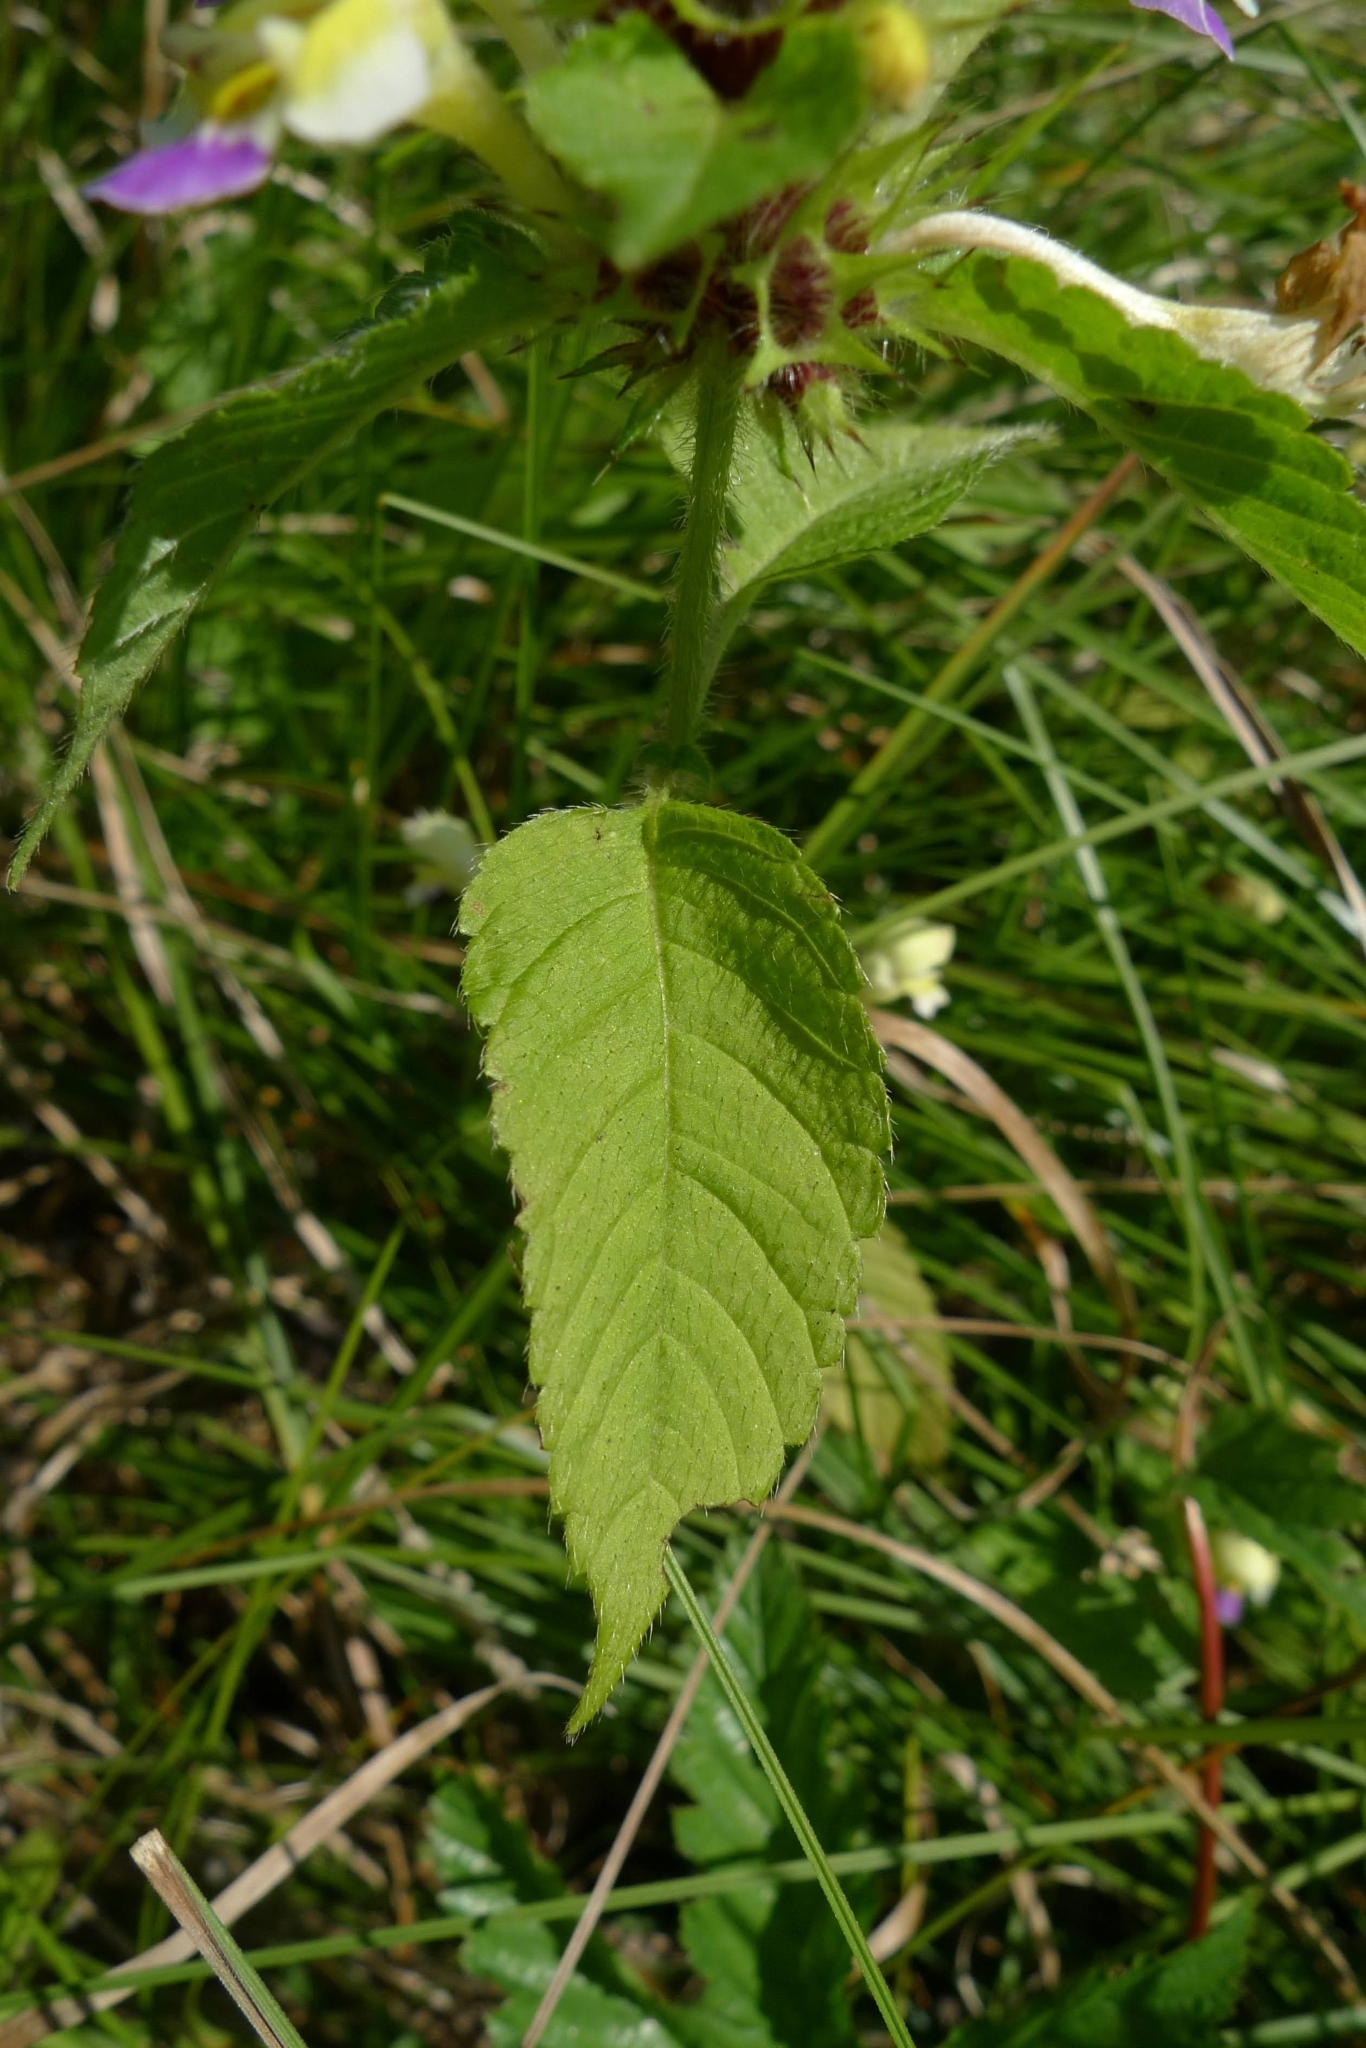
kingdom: Plantae
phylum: Tracheophyta
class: Magnoliopsida
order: Lamiales
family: Lamiaceae
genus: Galeopsis
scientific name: Galeopsis speciosa
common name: Large-flowered hemp-nettle
